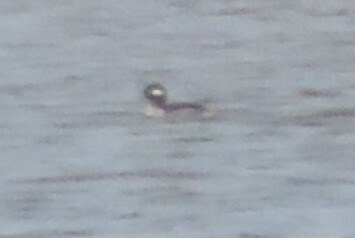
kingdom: Animalia
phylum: Chordata
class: Aves
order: Anseriformes
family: Anatidae
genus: Bucephala
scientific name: Bucephala albeola
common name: Bufflehead
